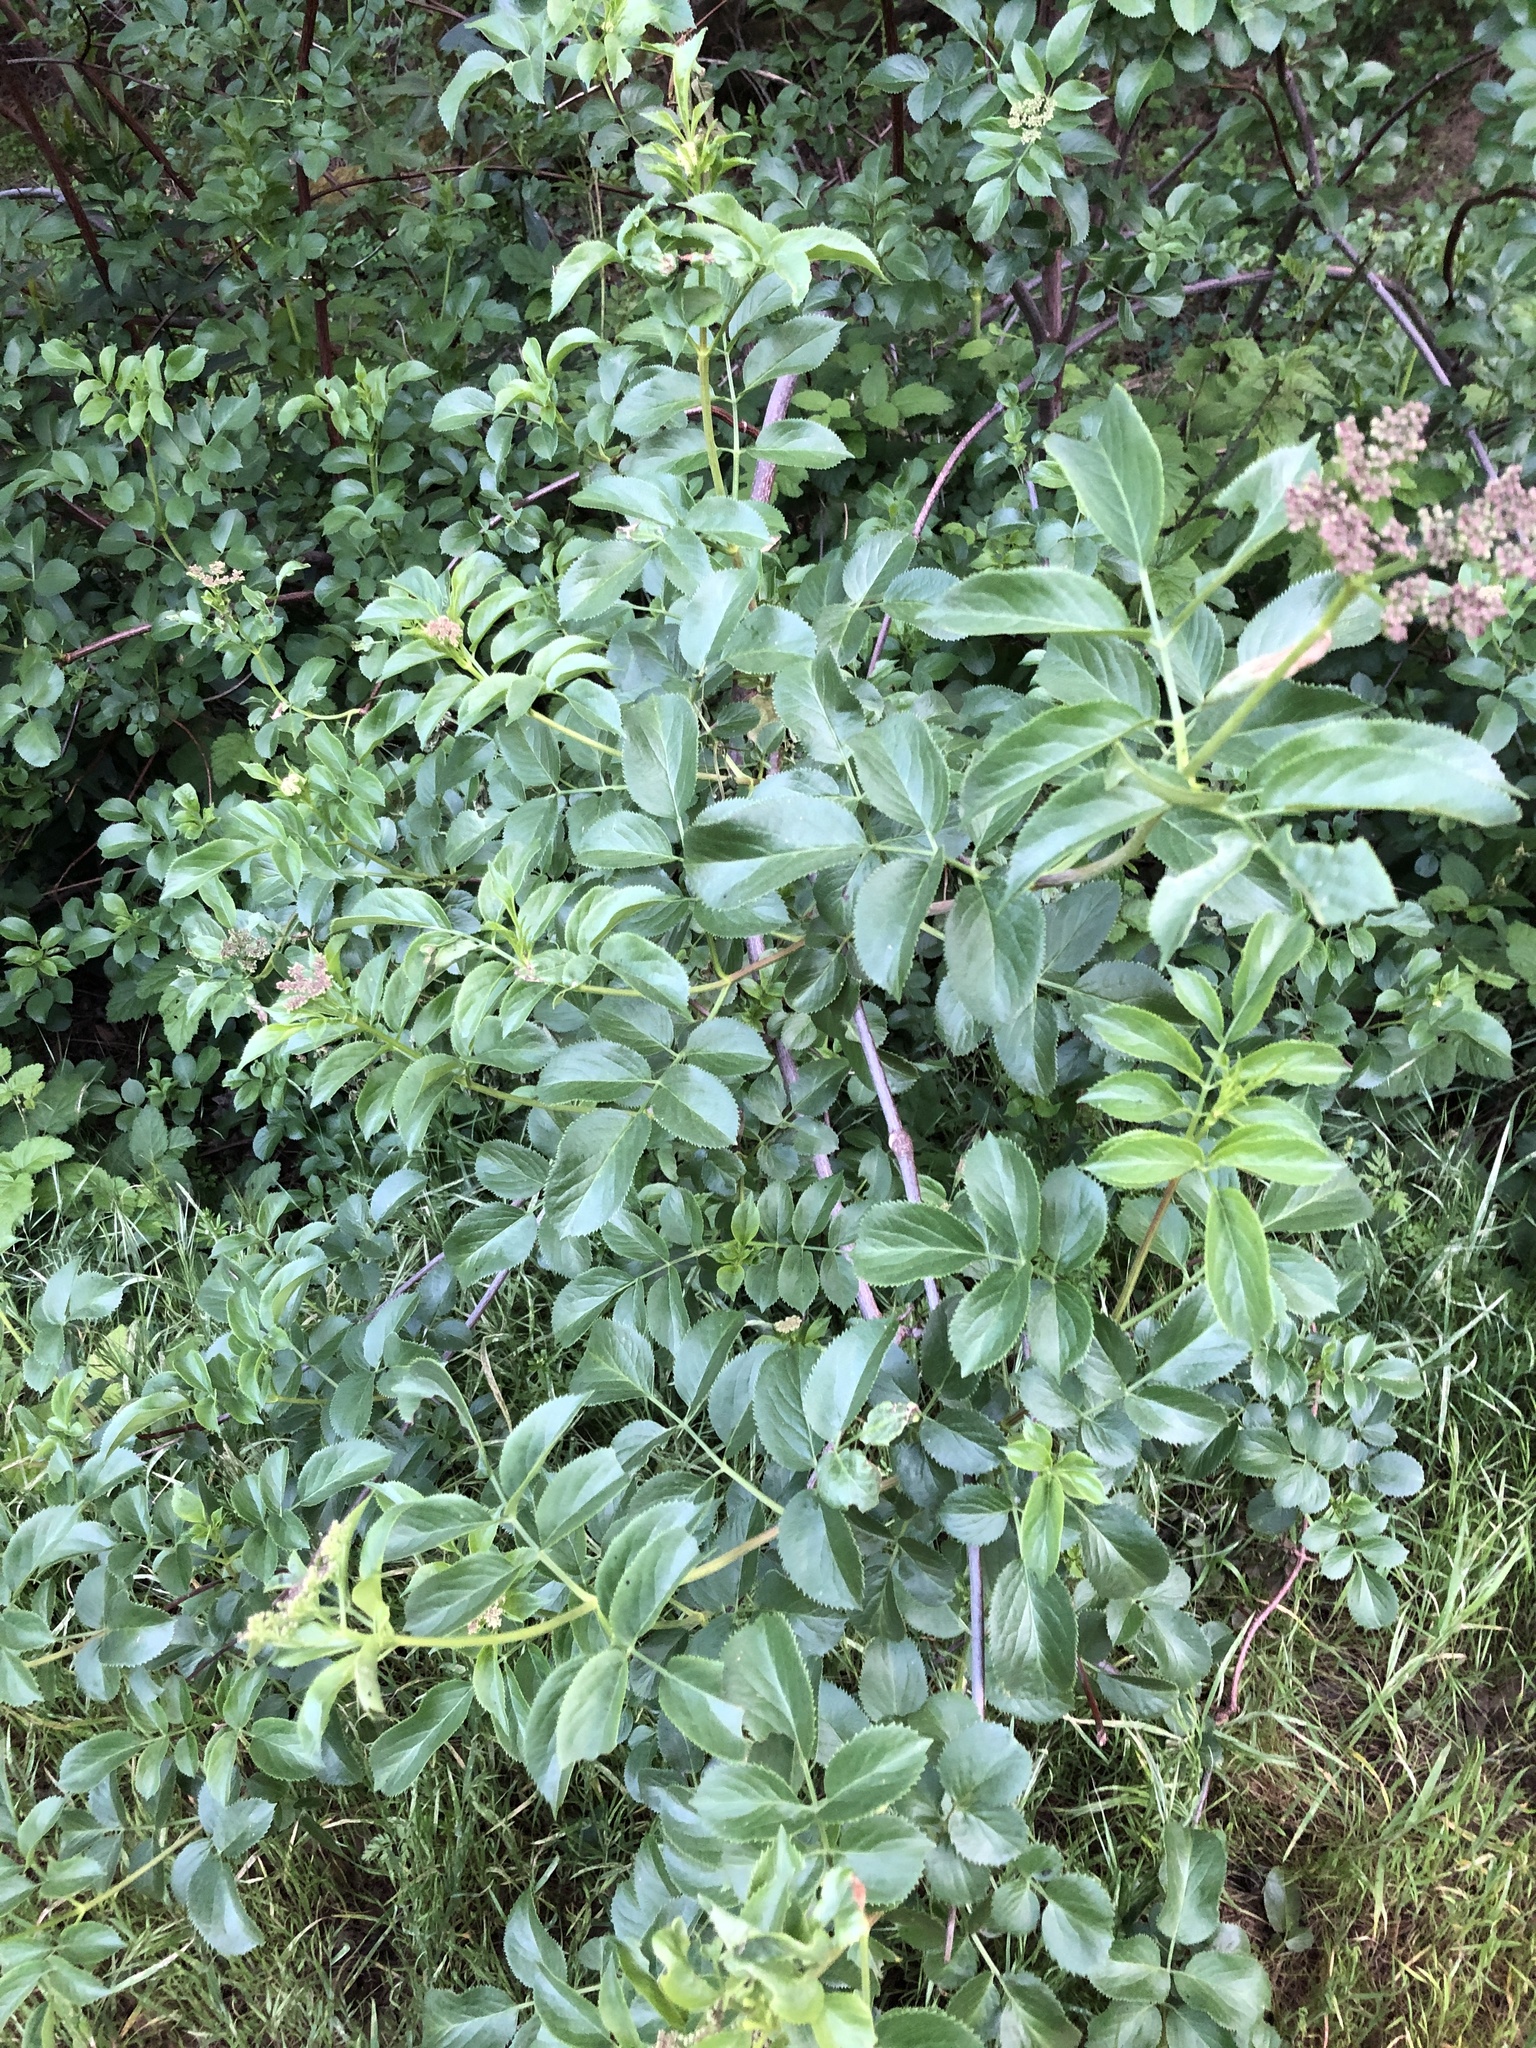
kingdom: Plantae
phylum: Tracheophyta
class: Magnoliopsida
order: Dipsacales
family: Viburnaceae
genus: Sambucus
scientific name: Sambucus cerulea
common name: Blue elder
